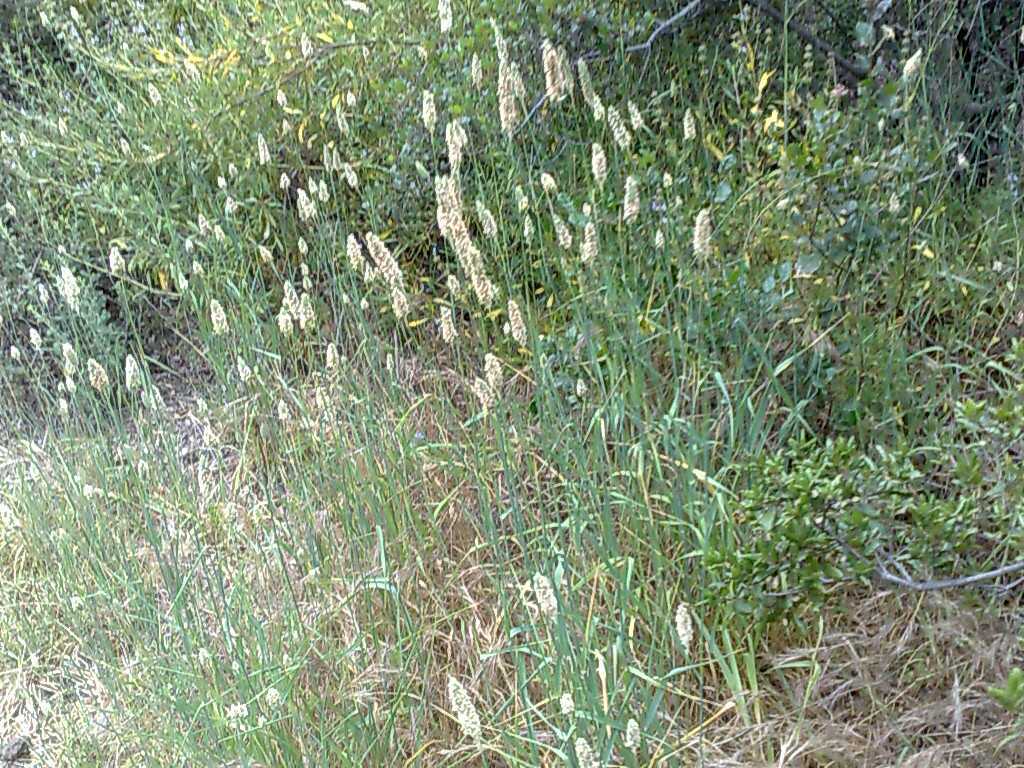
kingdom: Plantae
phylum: Tracheophyta
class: Liliopsida
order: Poales
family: Poaceae
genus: Phalaris
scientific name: Phalaris aquatica
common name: Bulbous canary-grass
